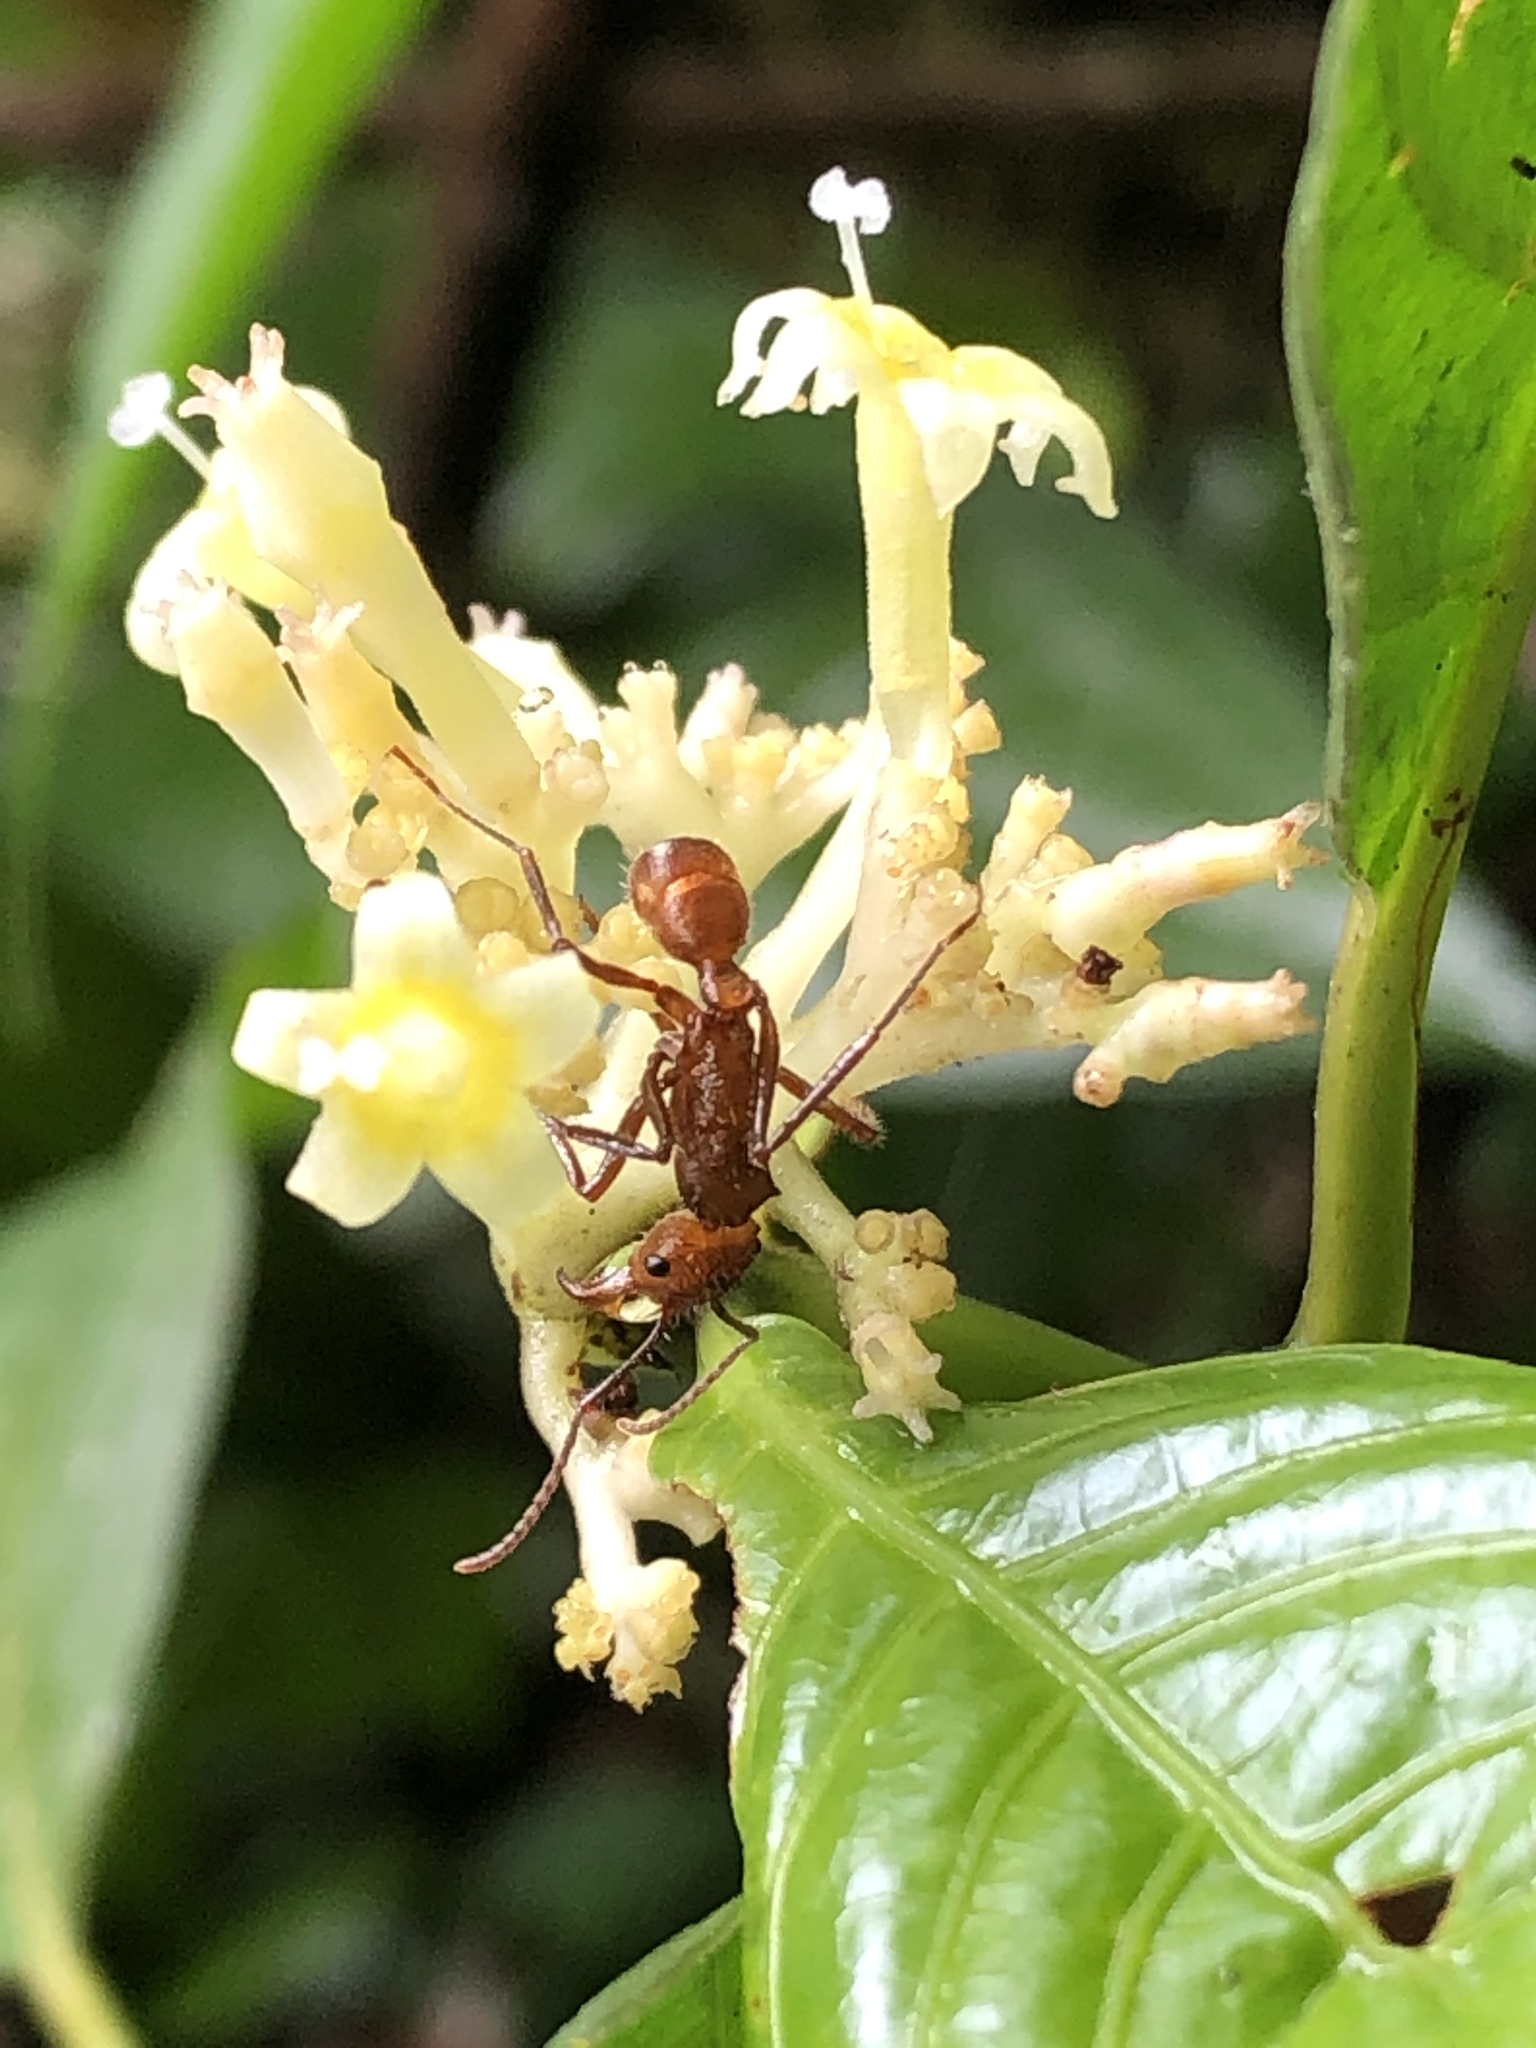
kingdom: Plantae
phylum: Tracheophyta
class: Magnoliopsida
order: Gentianales
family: Rubiaceae
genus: Palicourea
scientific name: Palicourea didymocarpos
